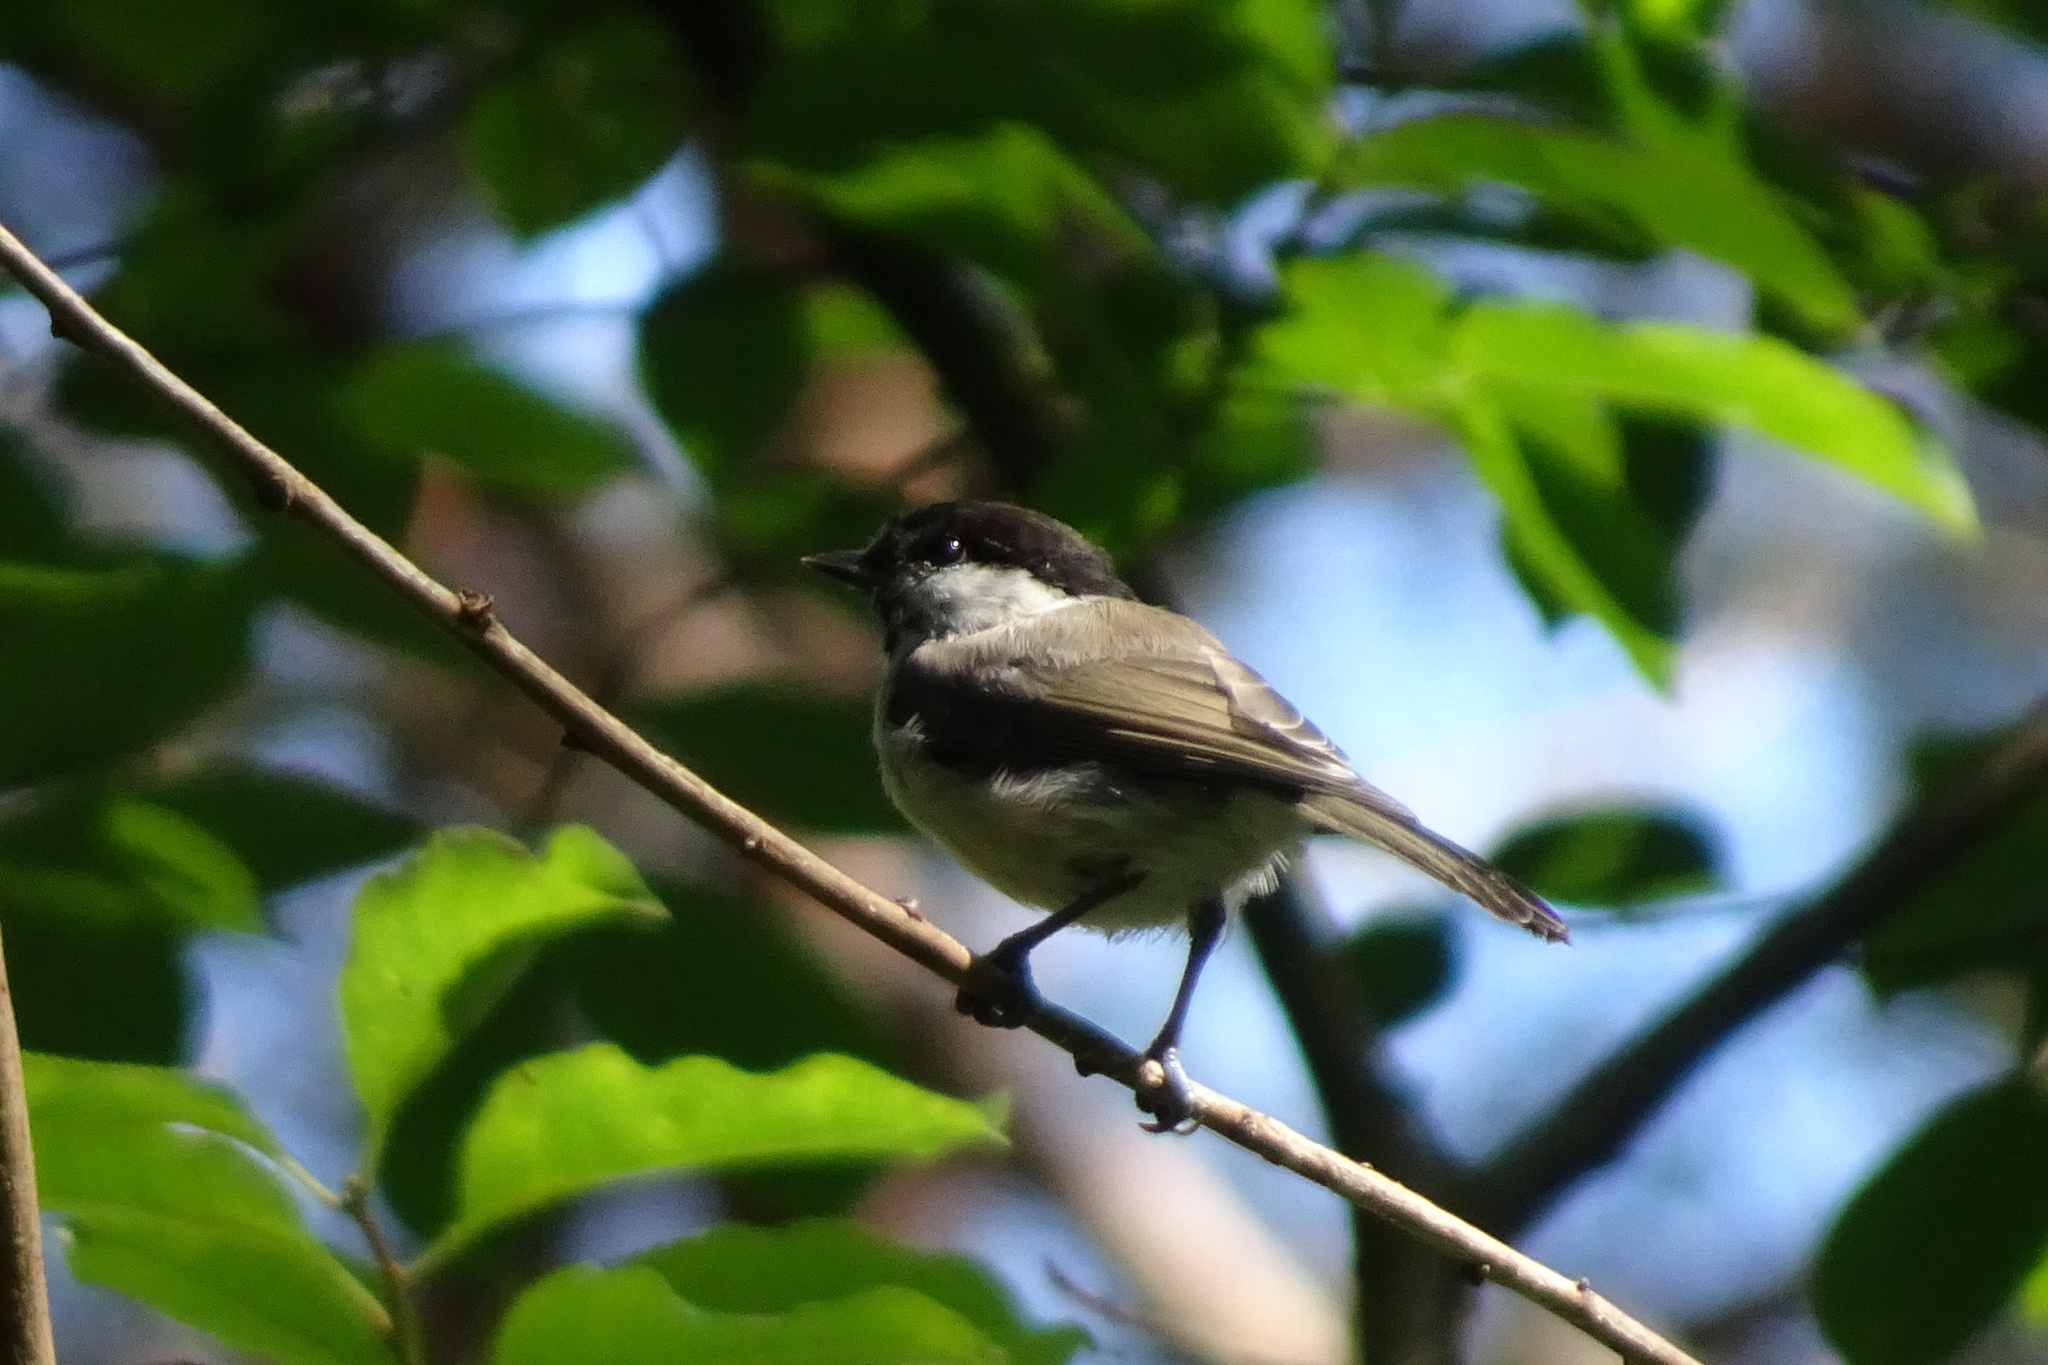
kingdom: Animalia
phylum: Chordata
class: Aves
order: Passeriformes
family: Paridae
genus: Poecile
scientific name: Poecile palustris
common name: Marsh tit
